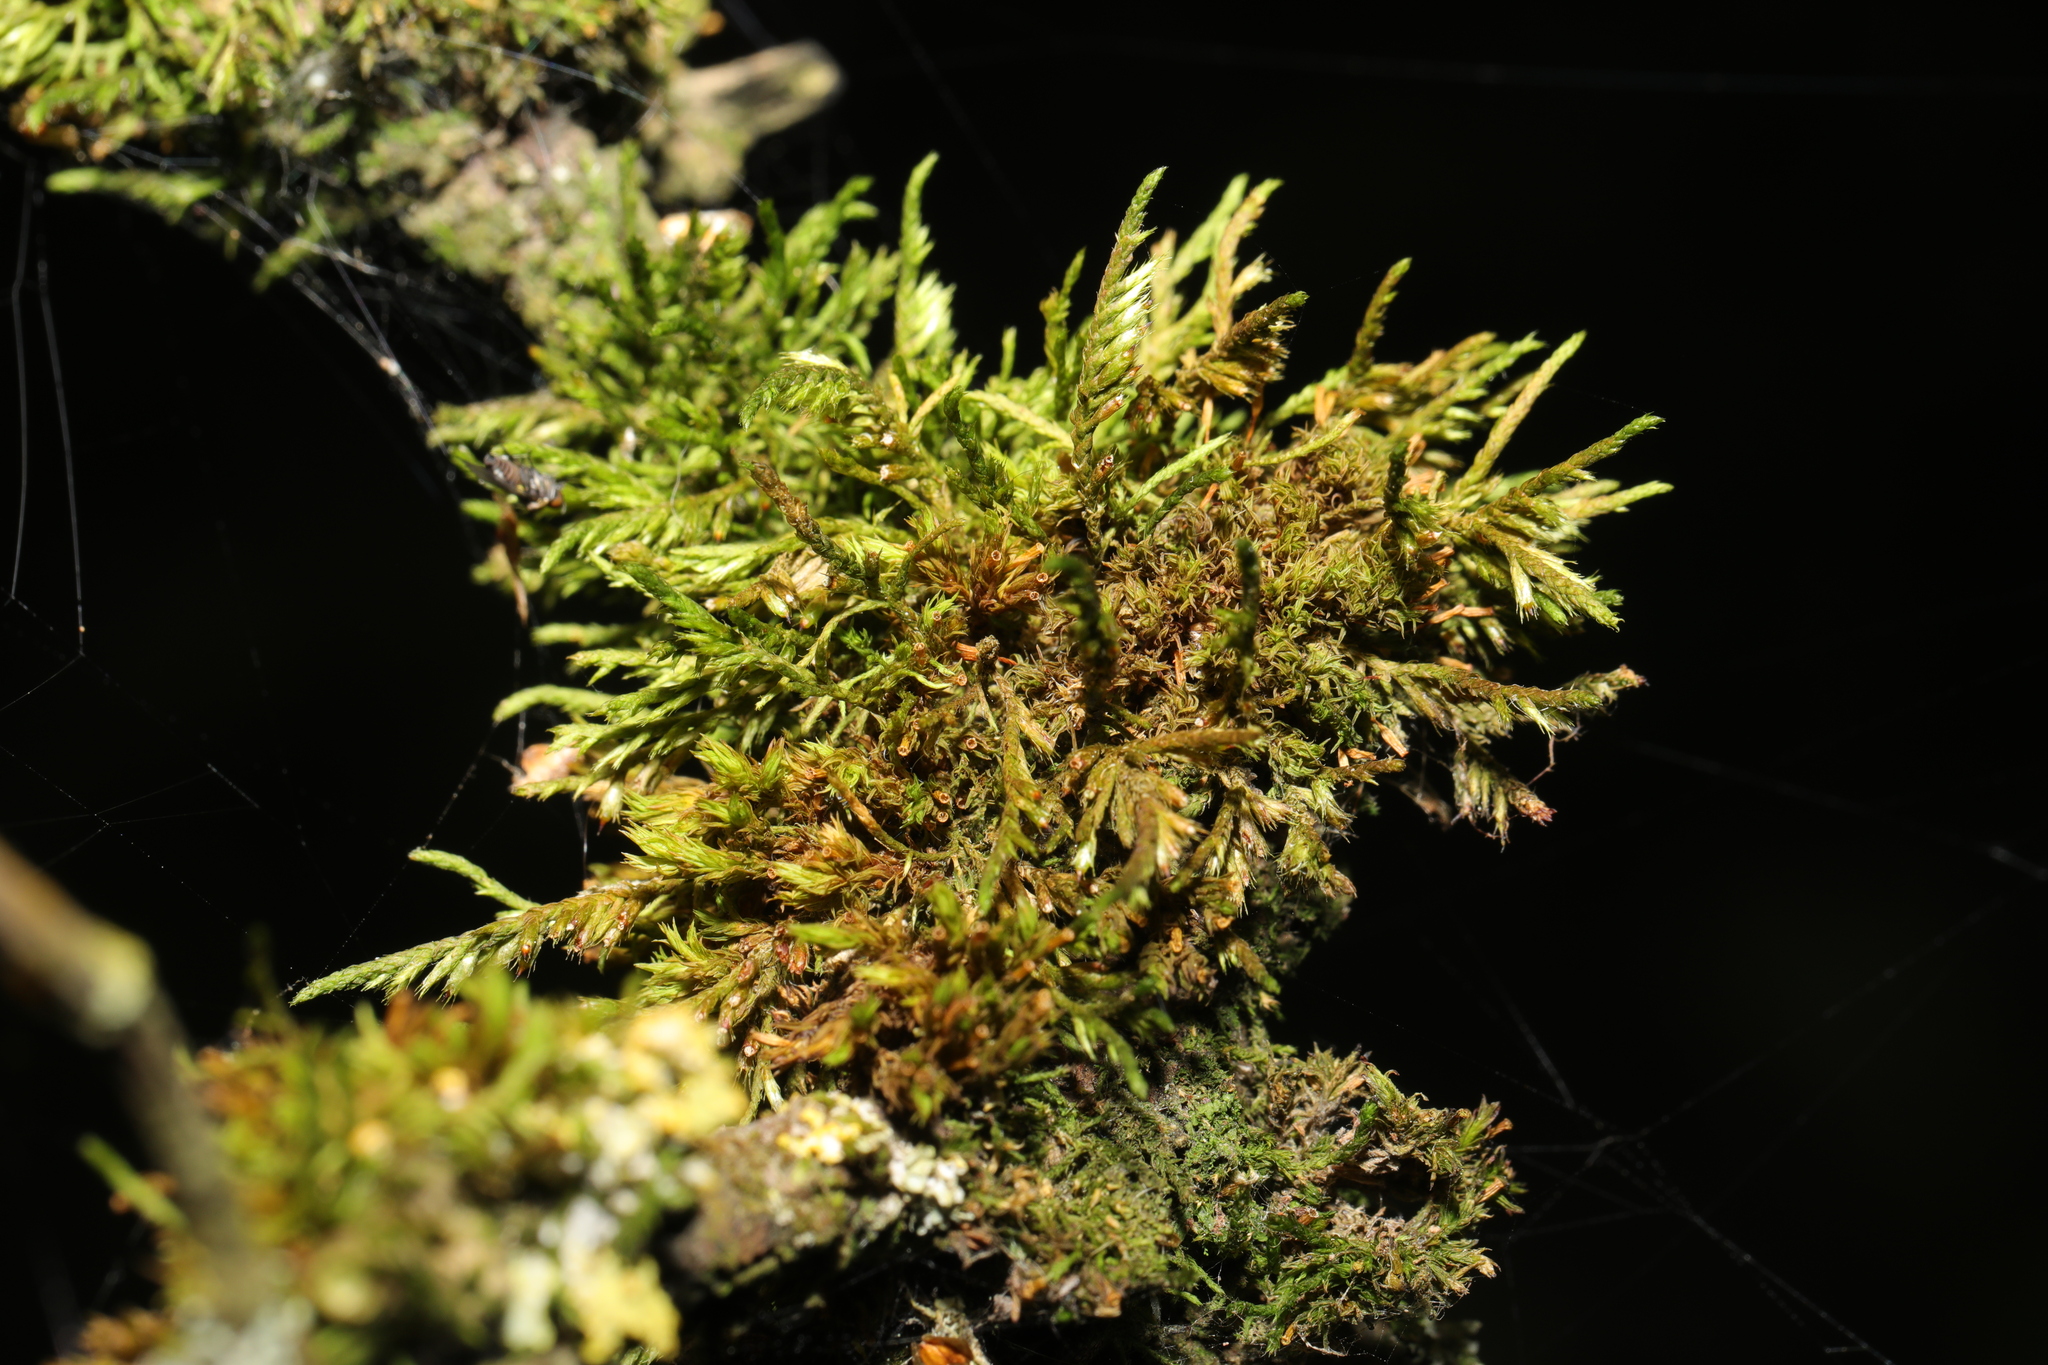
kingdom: Plantae
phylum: Bryophyta
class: Bryopsida
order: Hypnales
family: Cryphaeaceae
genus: Cryphaea
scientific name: Cryphaea heteromalla
